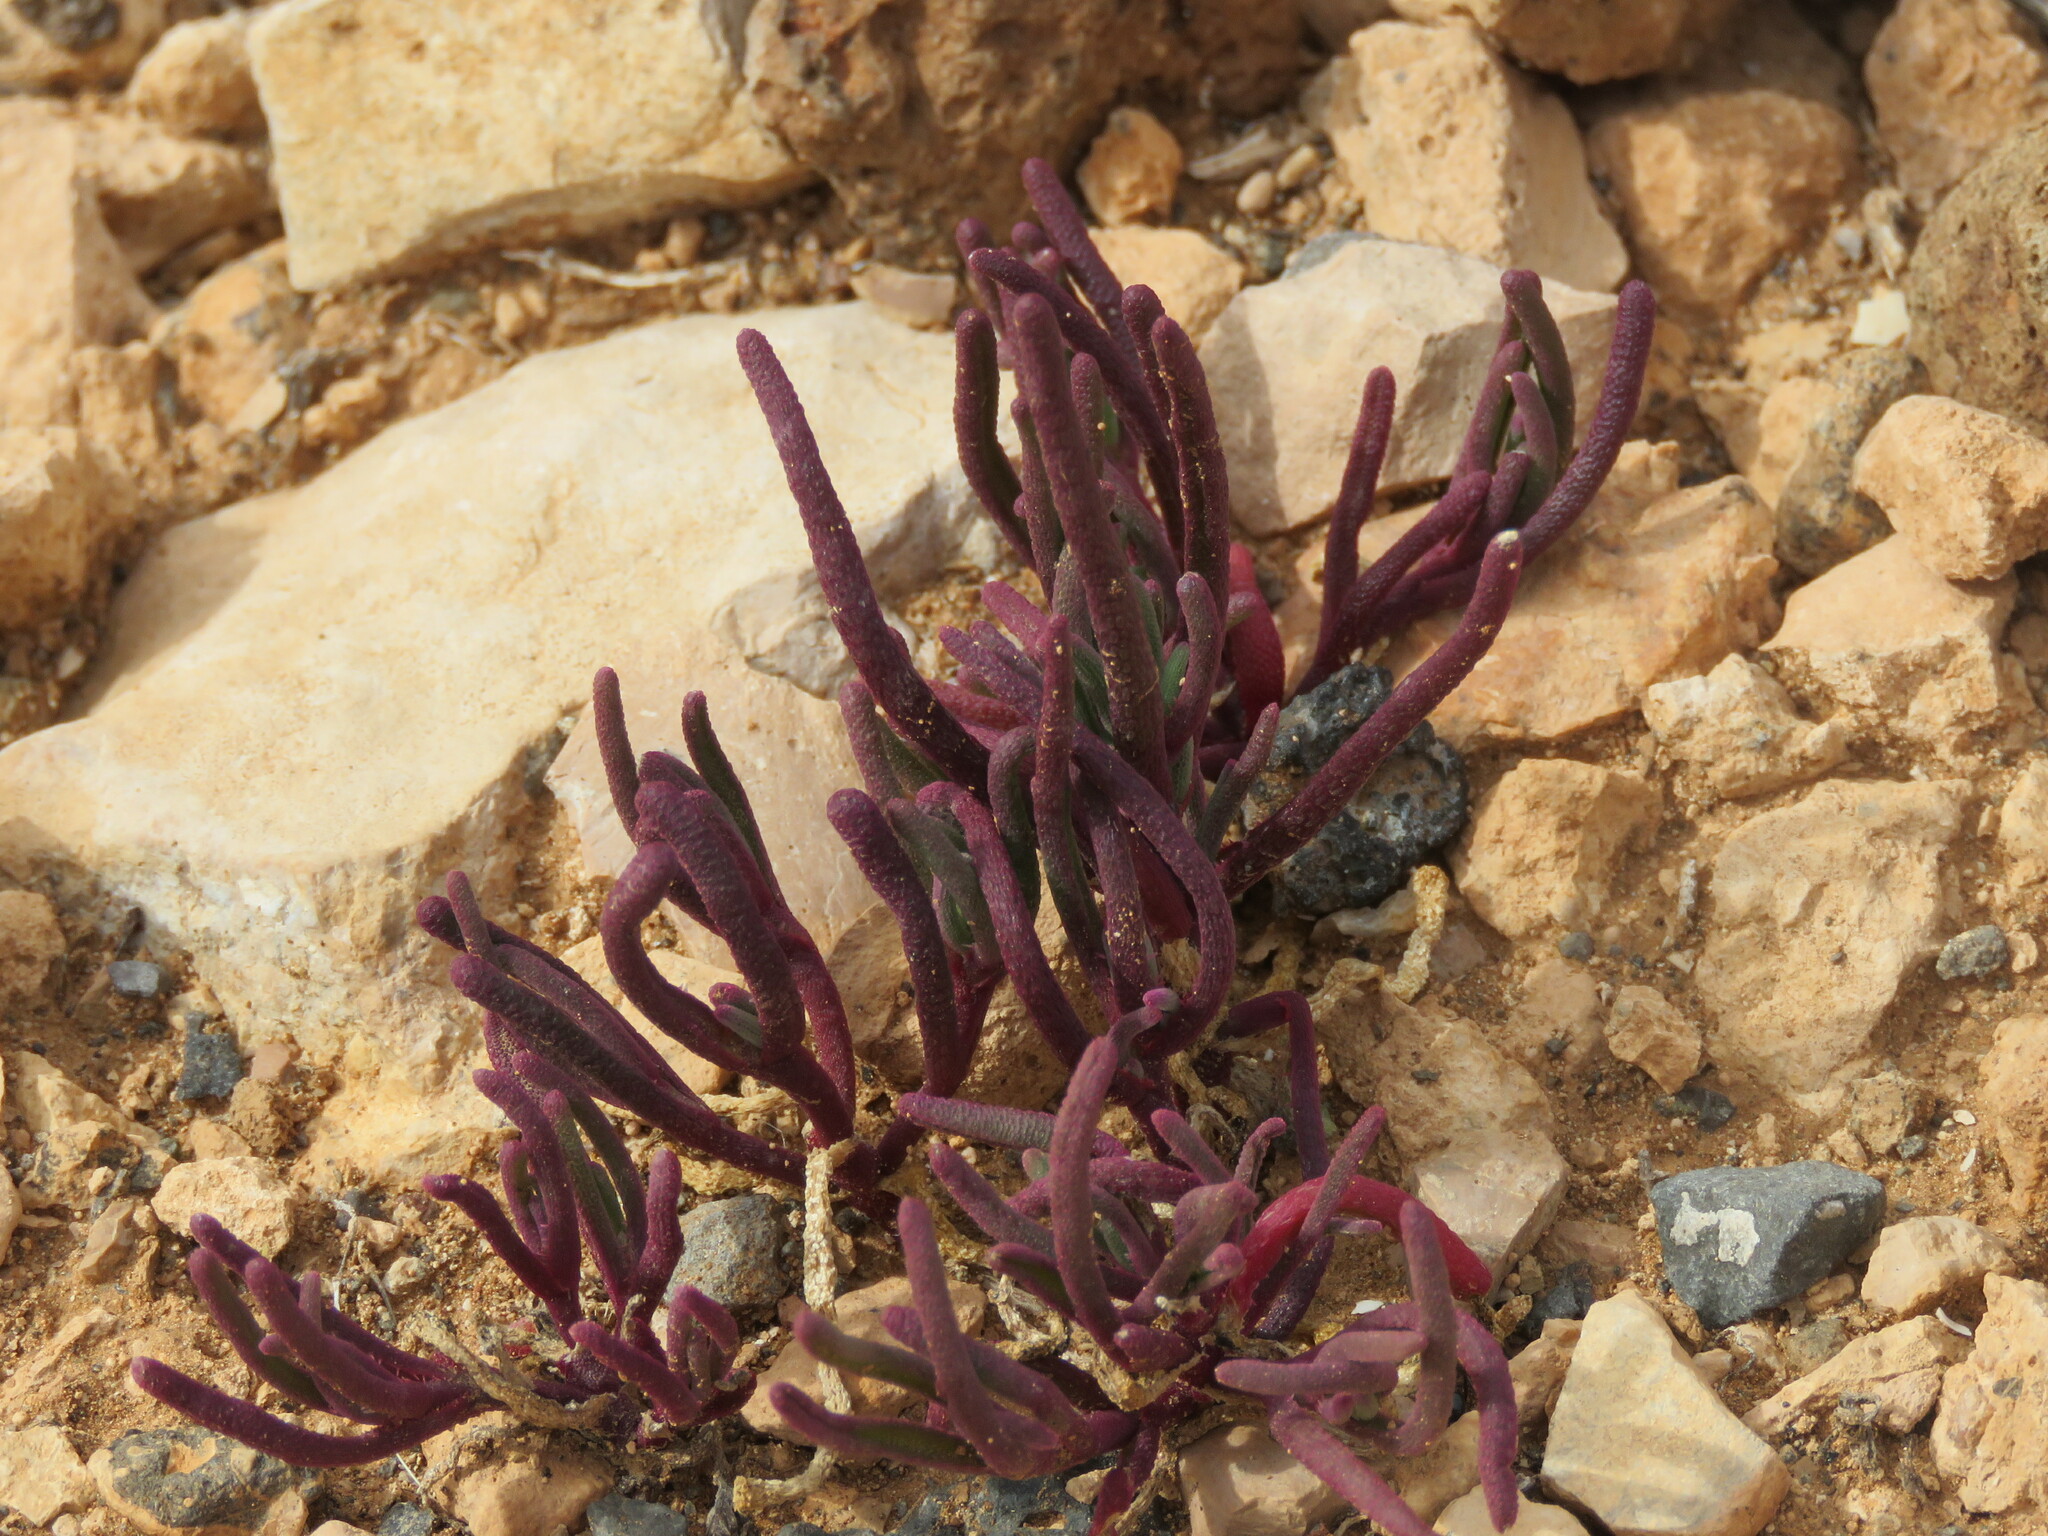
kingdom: Plantae
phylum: Tracheophyta
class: Magnoliopsida
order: Caryophyllales
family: Aizoaceae
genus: Mesembryanthemum
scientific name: Mesembryanthemum nodiflorum
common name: Slenderleaf iceplant
